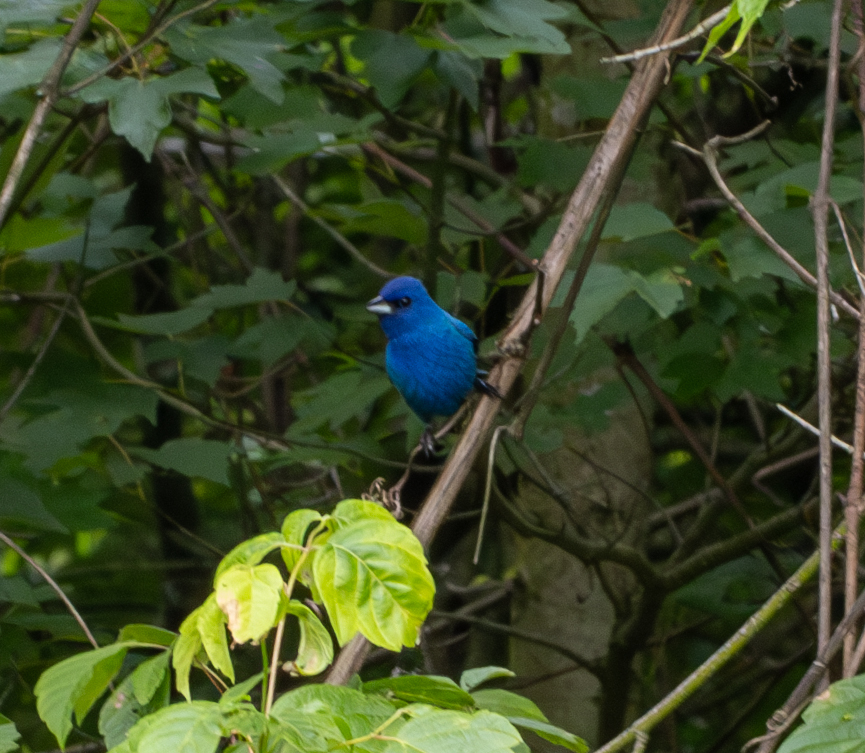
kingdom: Animalia
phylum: Chordata
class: Aves
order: Passeriformes
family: Cardinalidae
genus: Passerina
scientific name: Passerina cyanea
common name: Indigo bunting
